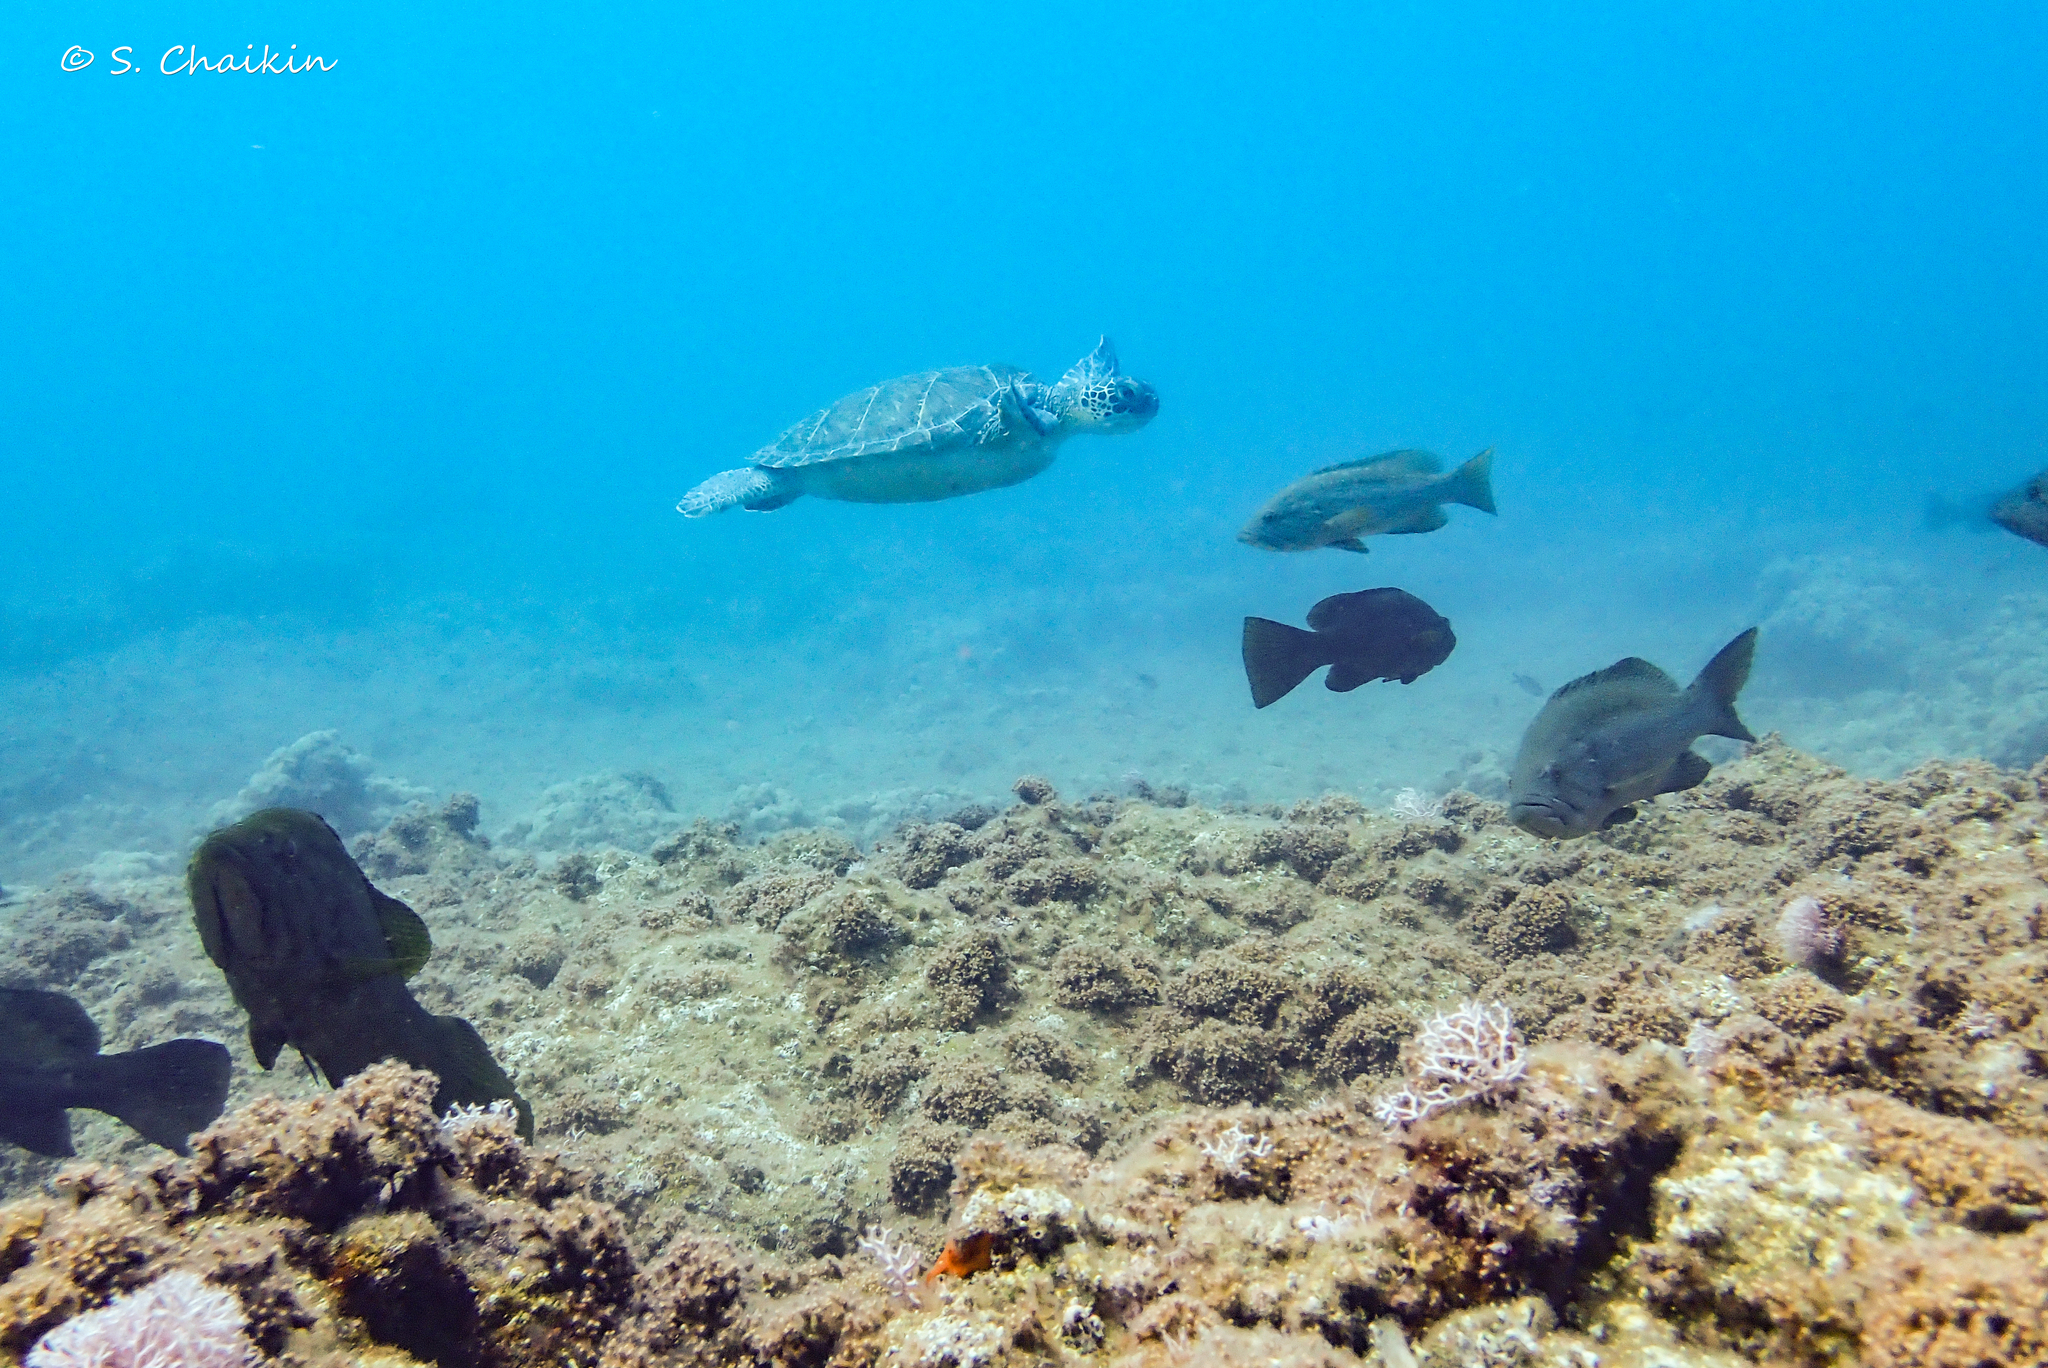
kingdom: Animalia
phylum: Chordata
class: Testudines
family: Cheloniidae
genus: Chelonia
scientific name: Chelonia mydas
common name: Green turtle
